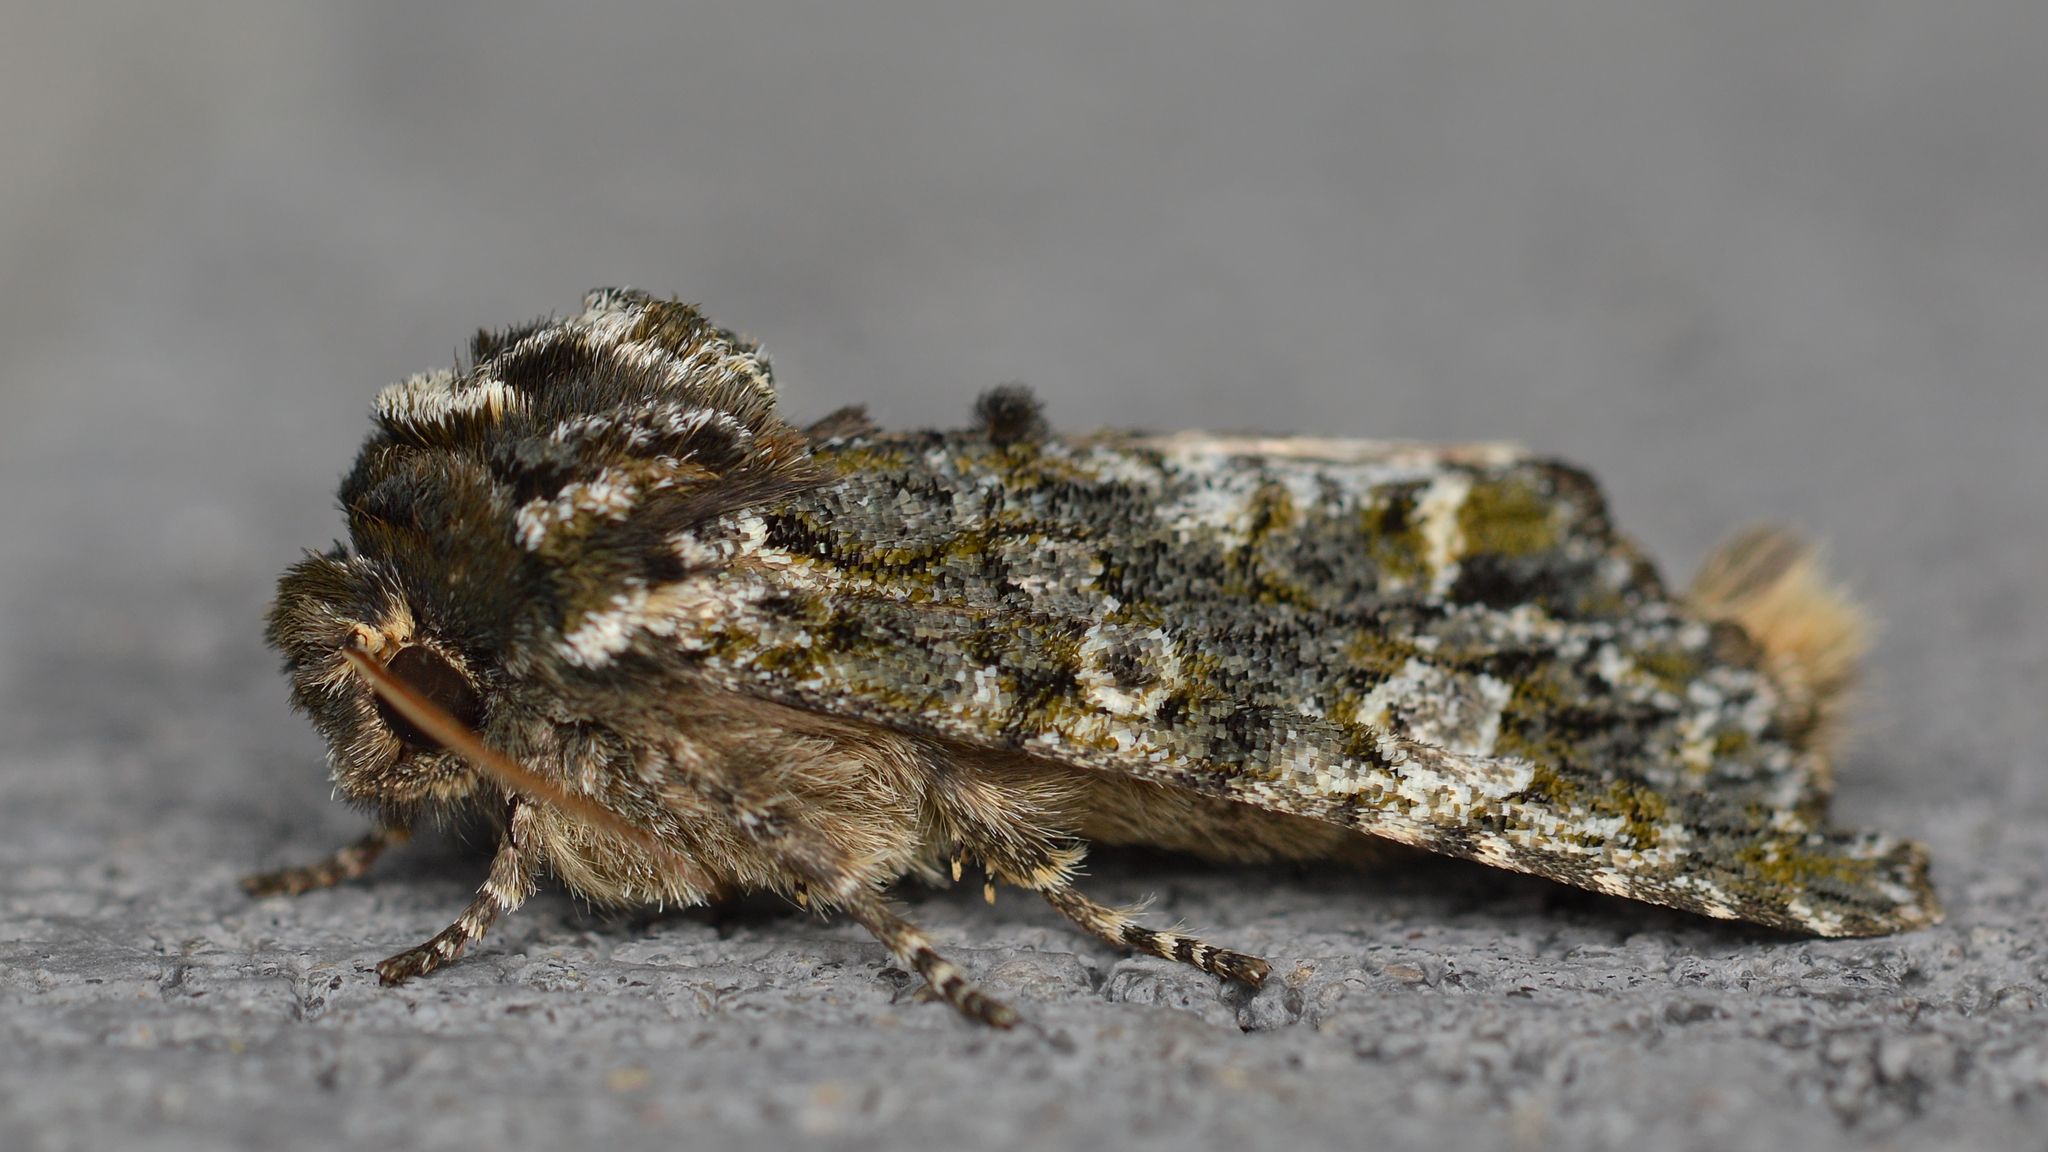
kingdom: Animalia
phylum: Arthropoda
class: Insecta
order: Lepidoptera
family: Noctuidae
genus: Psaphida
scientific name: Psaphida grotei
